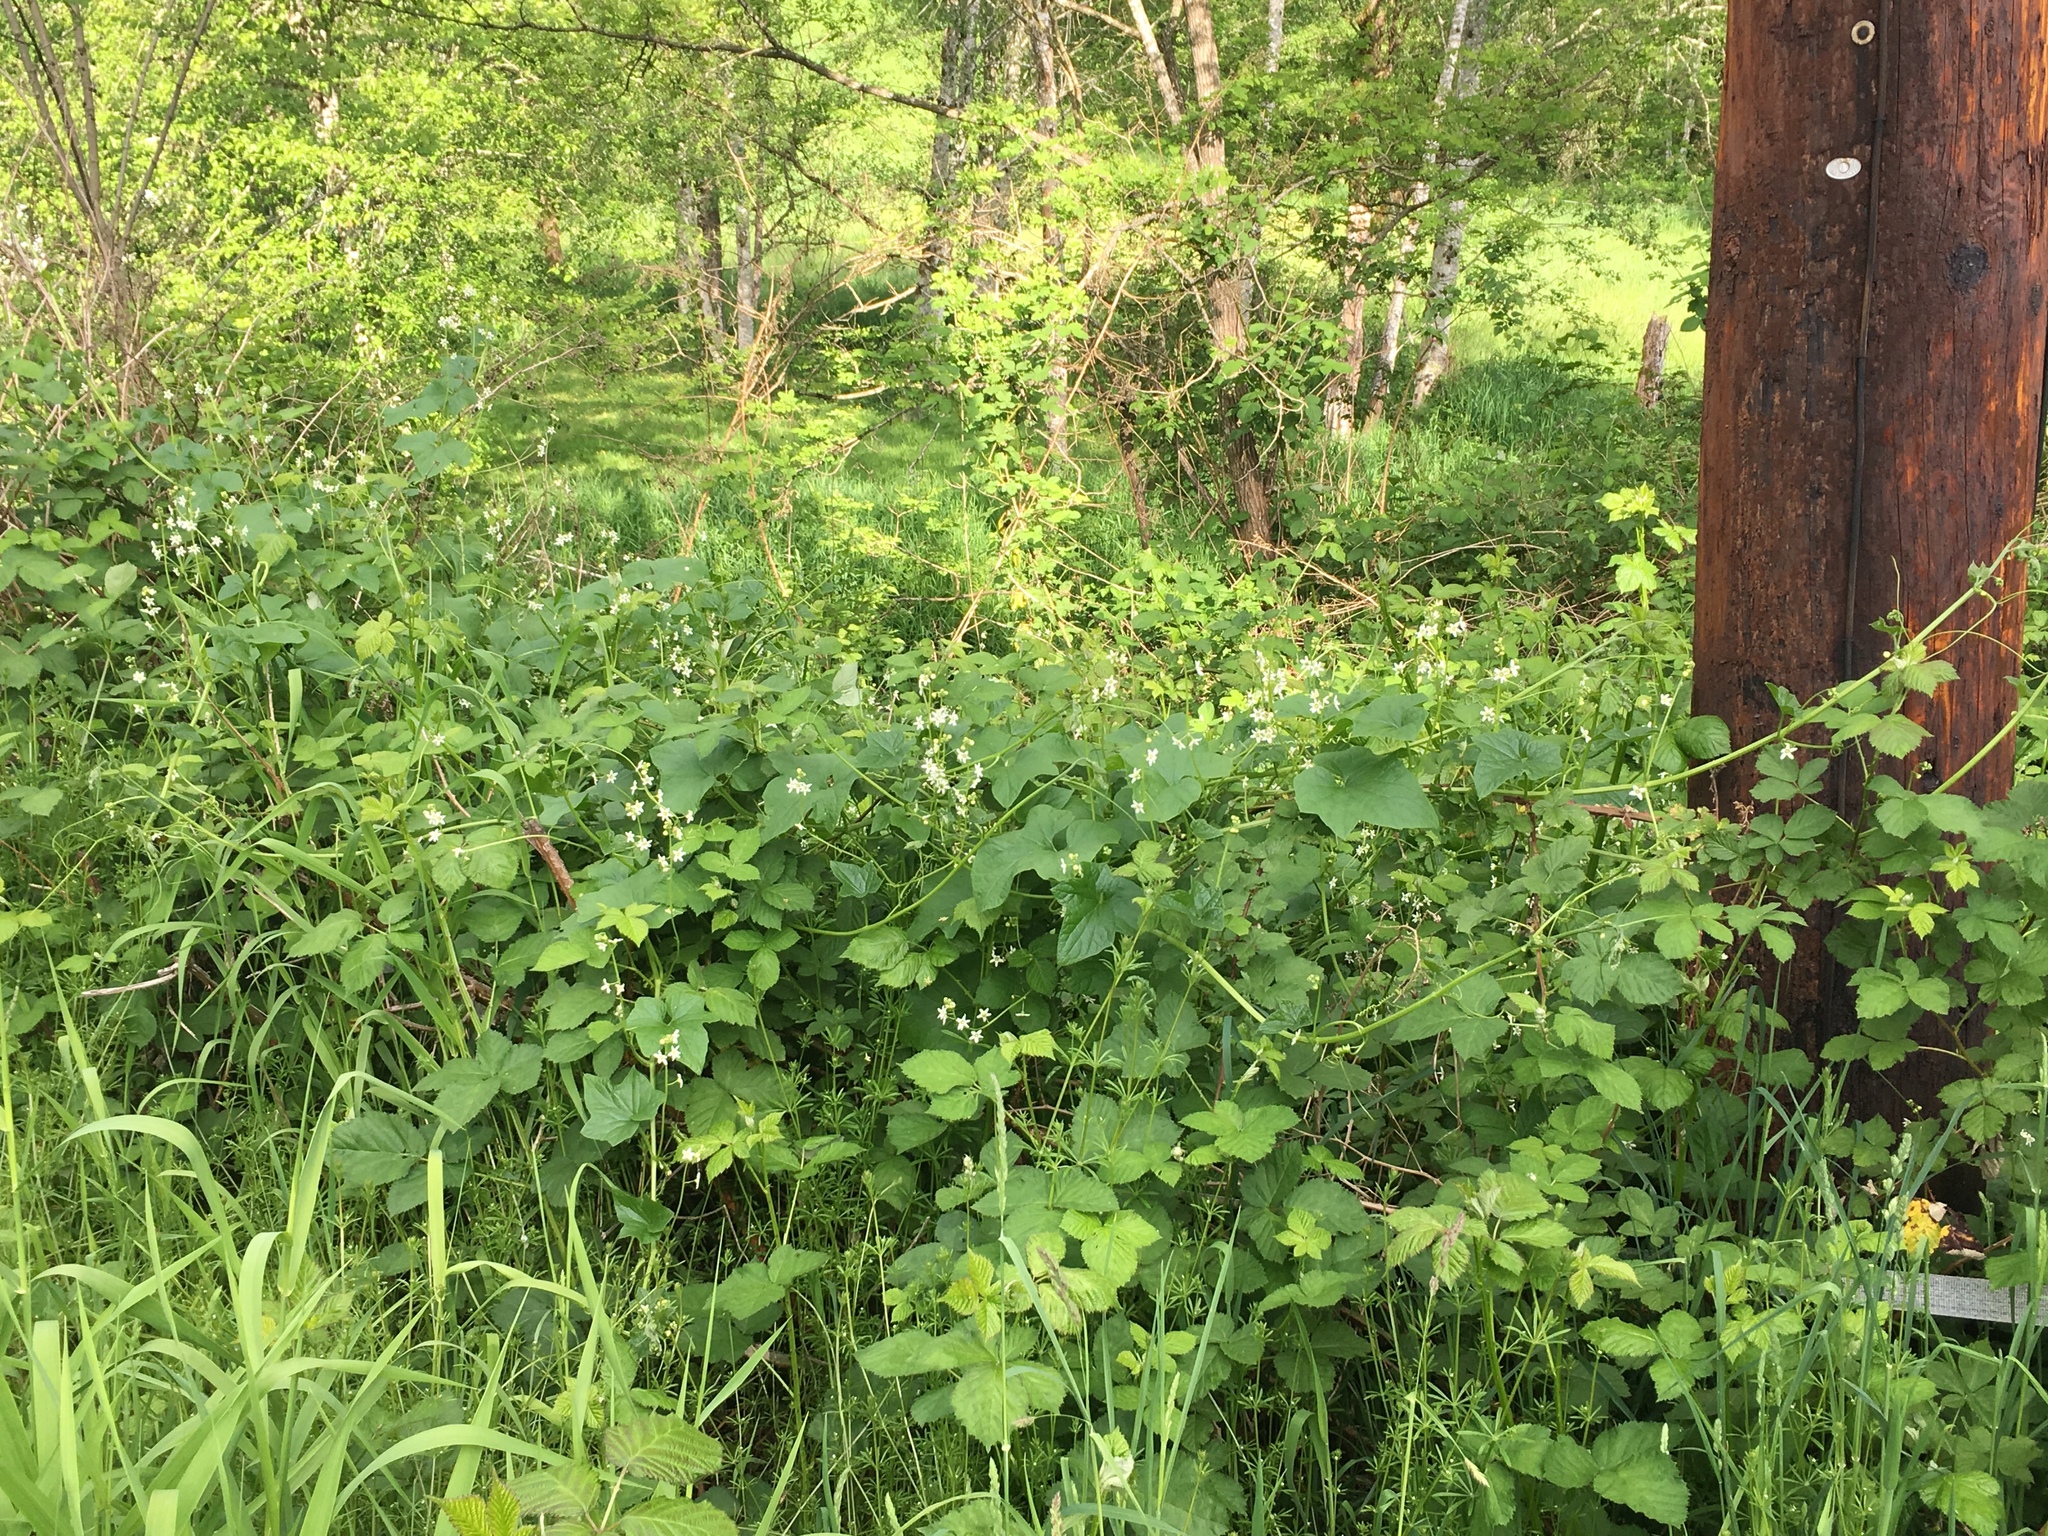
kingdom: Plantae
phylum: Tracheophyta
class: Magnoliopsida
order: Cucurbitales
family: Cucurbitaceae
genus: Marah
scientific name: Marah oregana
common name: Coastal manroot
